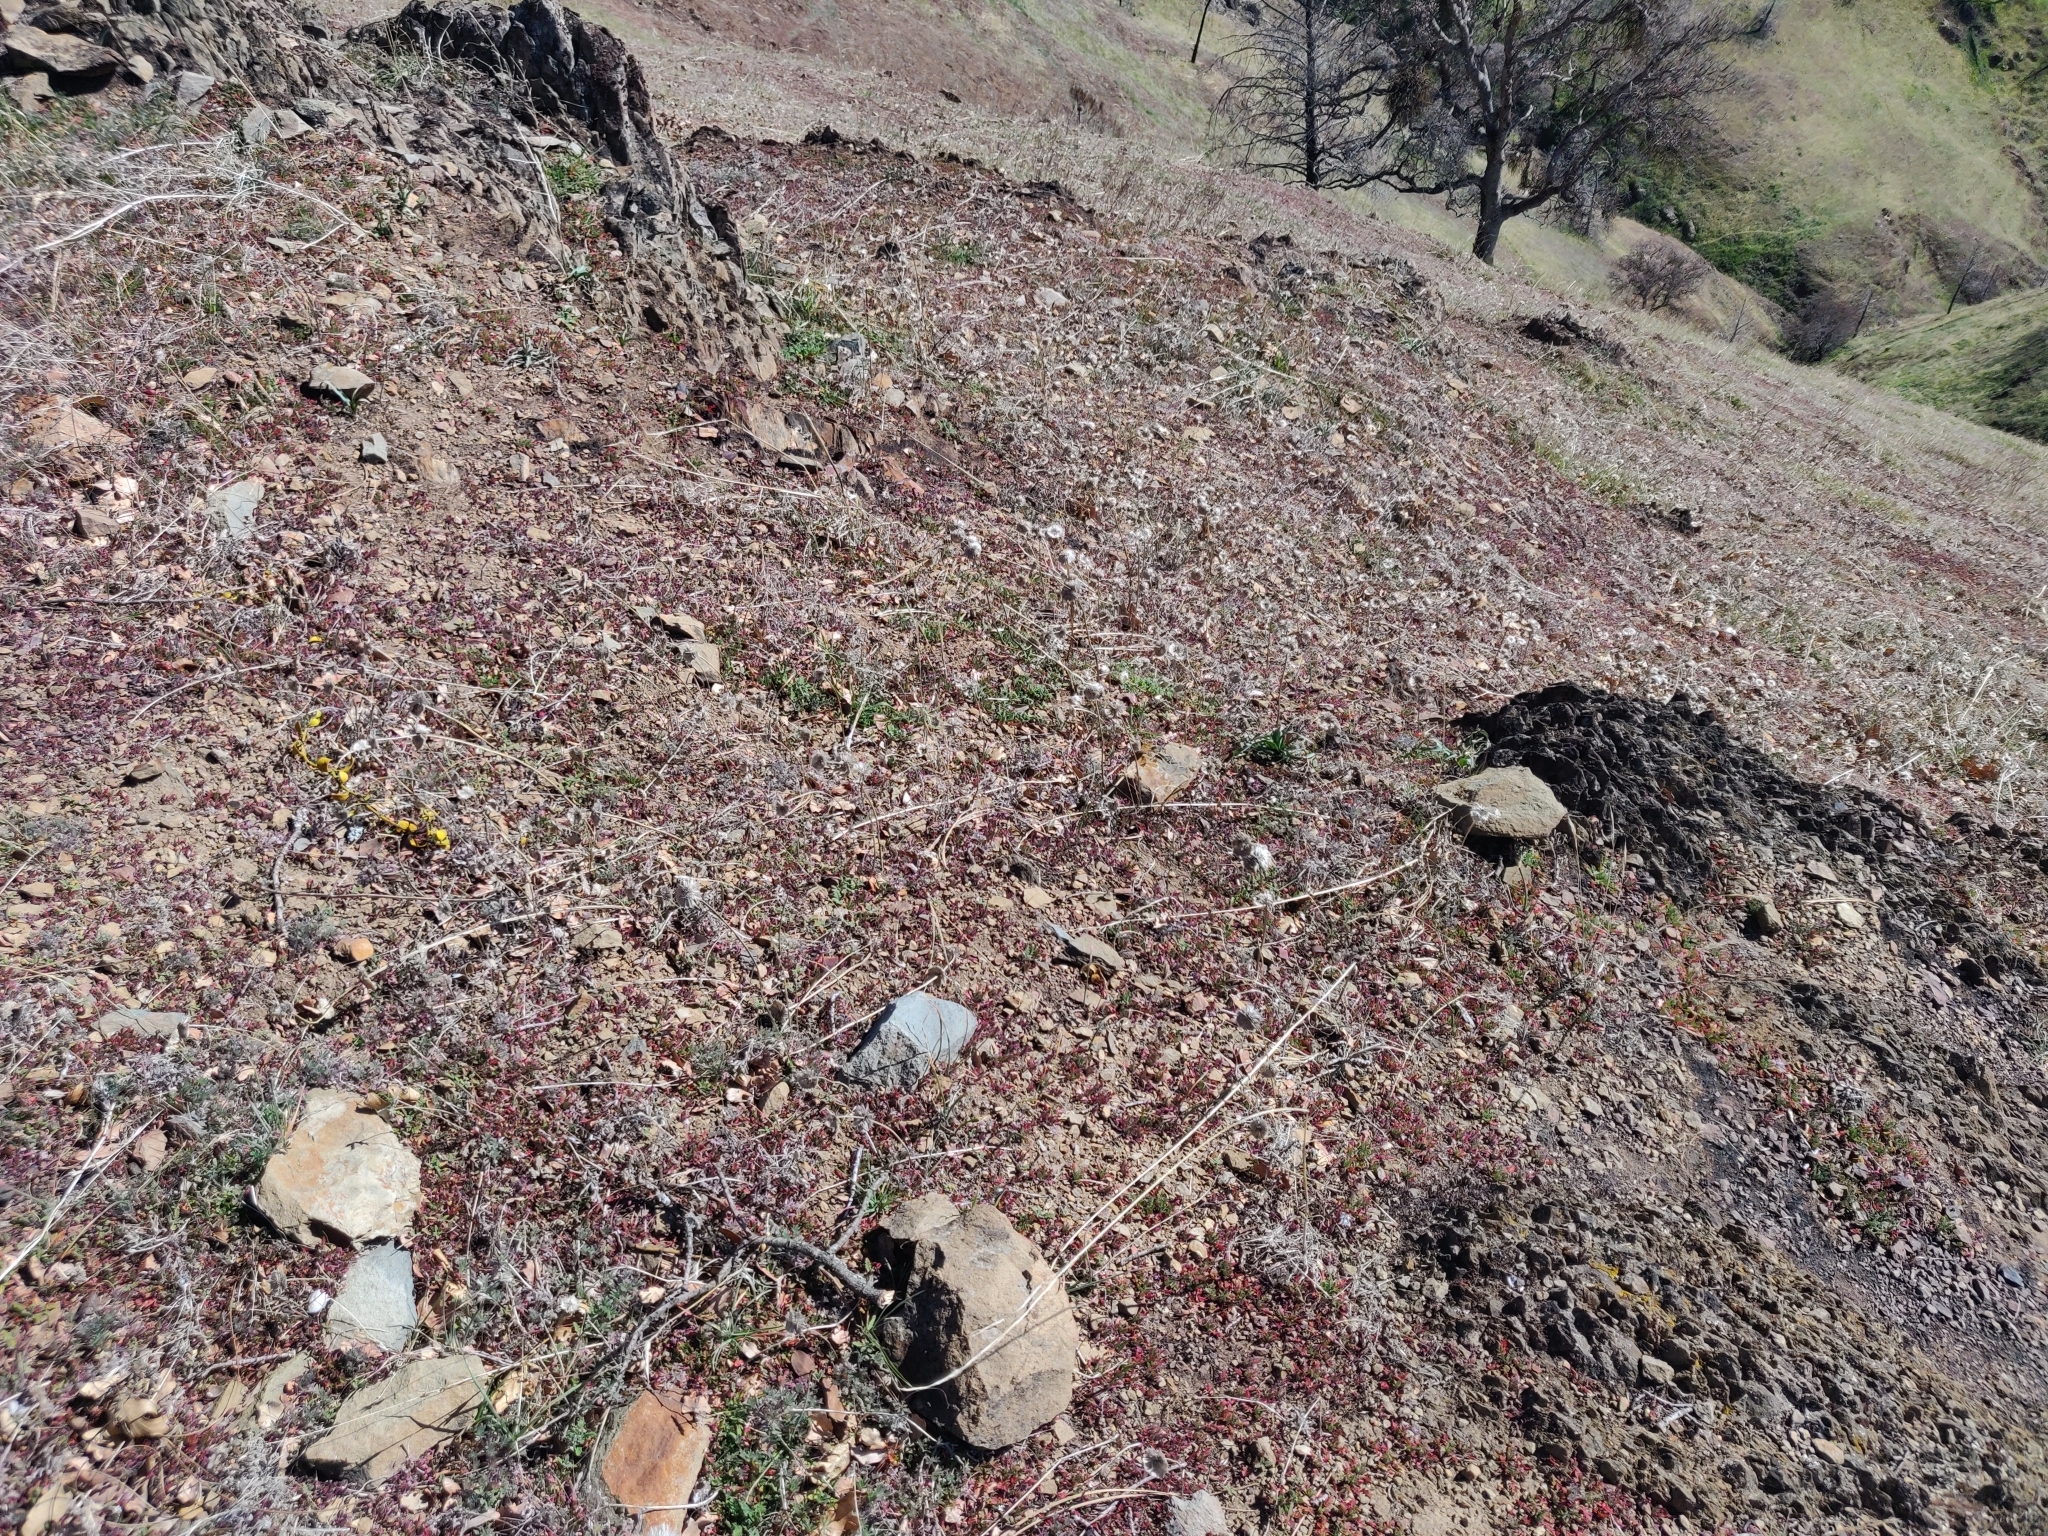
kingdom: Plantae
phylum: Tracheophyta
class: Magnoliopsida
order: Lamiales
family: Lamiaceae
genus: Salvia
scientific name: Salvia columbariae
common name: Chia
